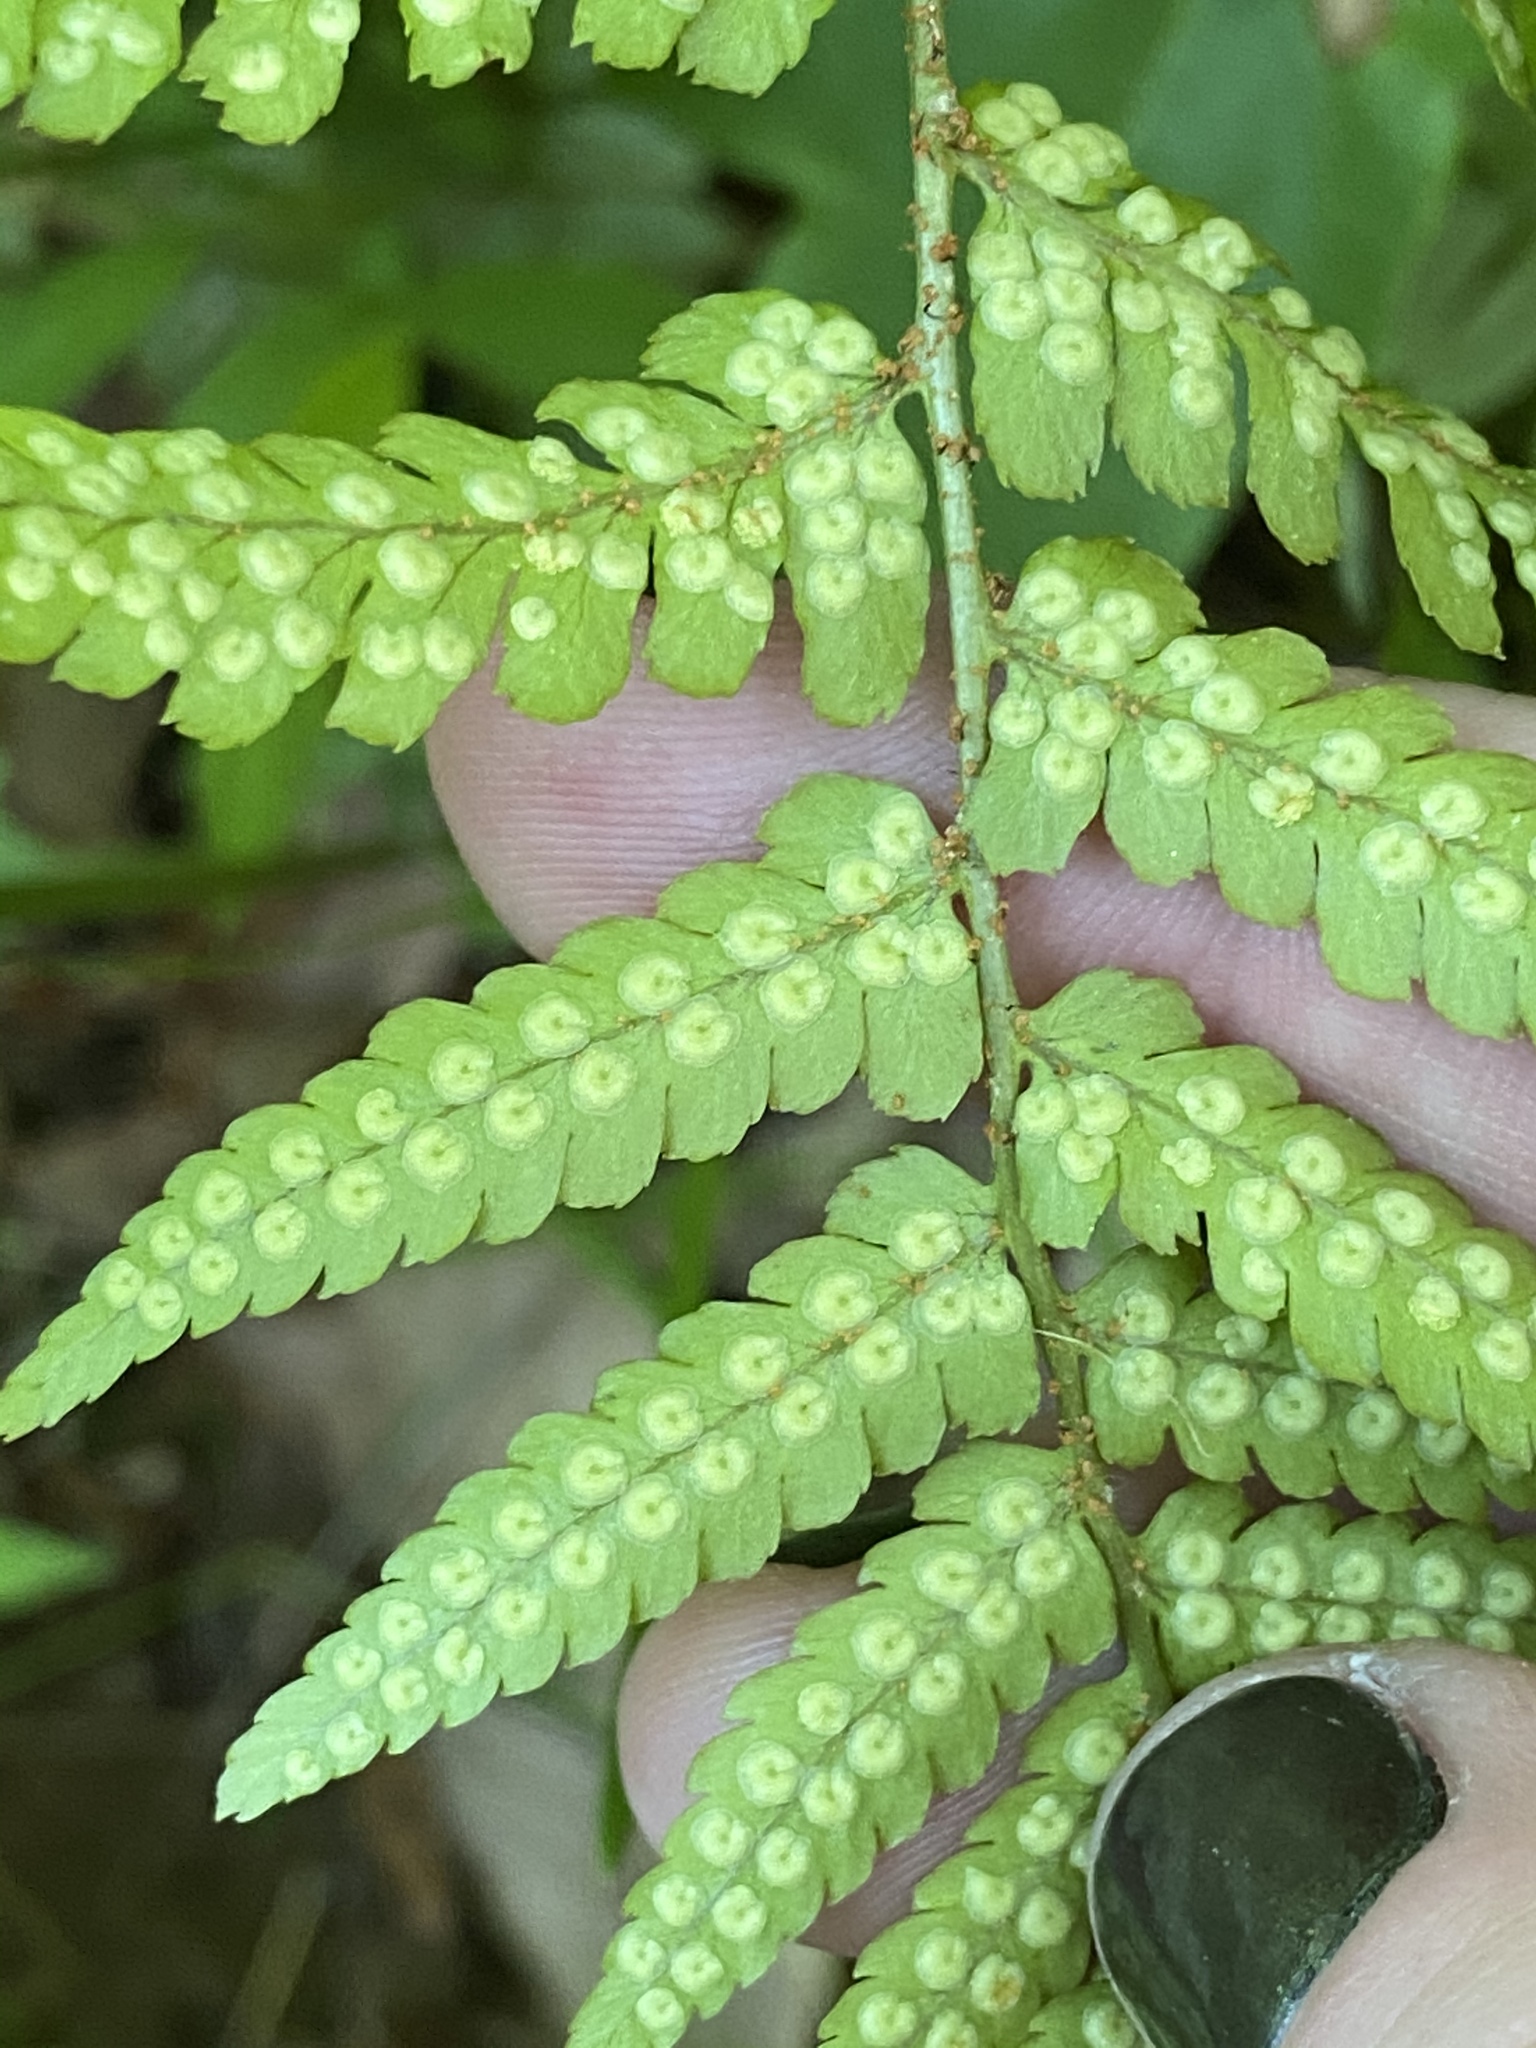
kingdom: Plantae
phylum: Tracheophyta
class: Polypodiopsida
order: Polypodiales
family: Dryopteridaceae
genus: Dryopteris
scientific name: Dryopteris erythrosora
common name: Autumn fern
